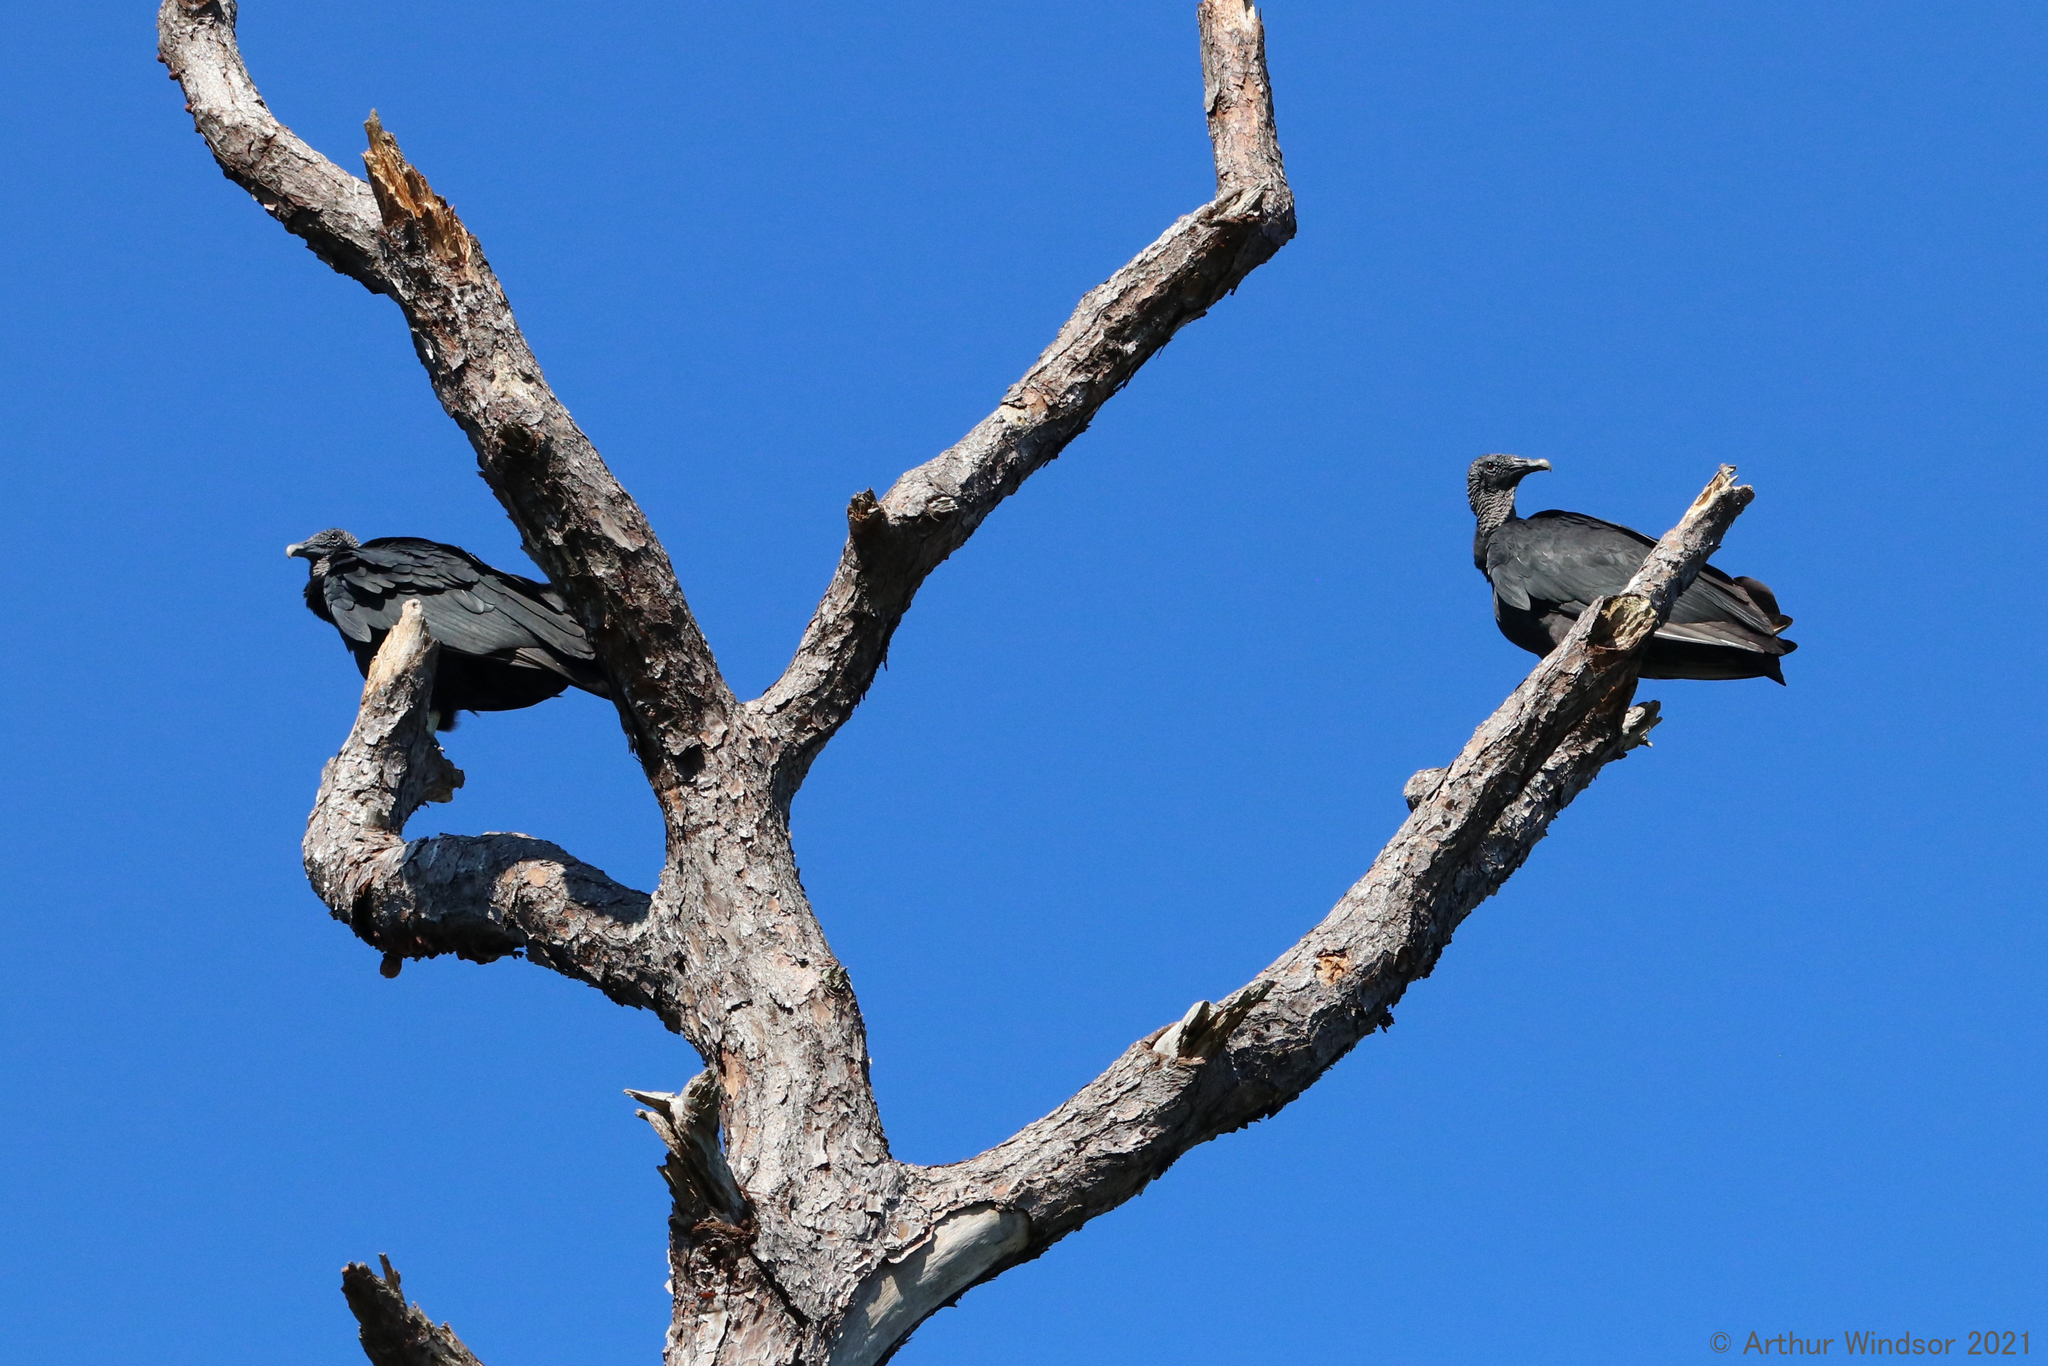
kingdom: Animalia
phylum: Chordata
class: Aves
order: Accipitriformes
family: Cathartidae
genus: Coragyps
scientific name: Coragyps atratus
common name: Black vulture
